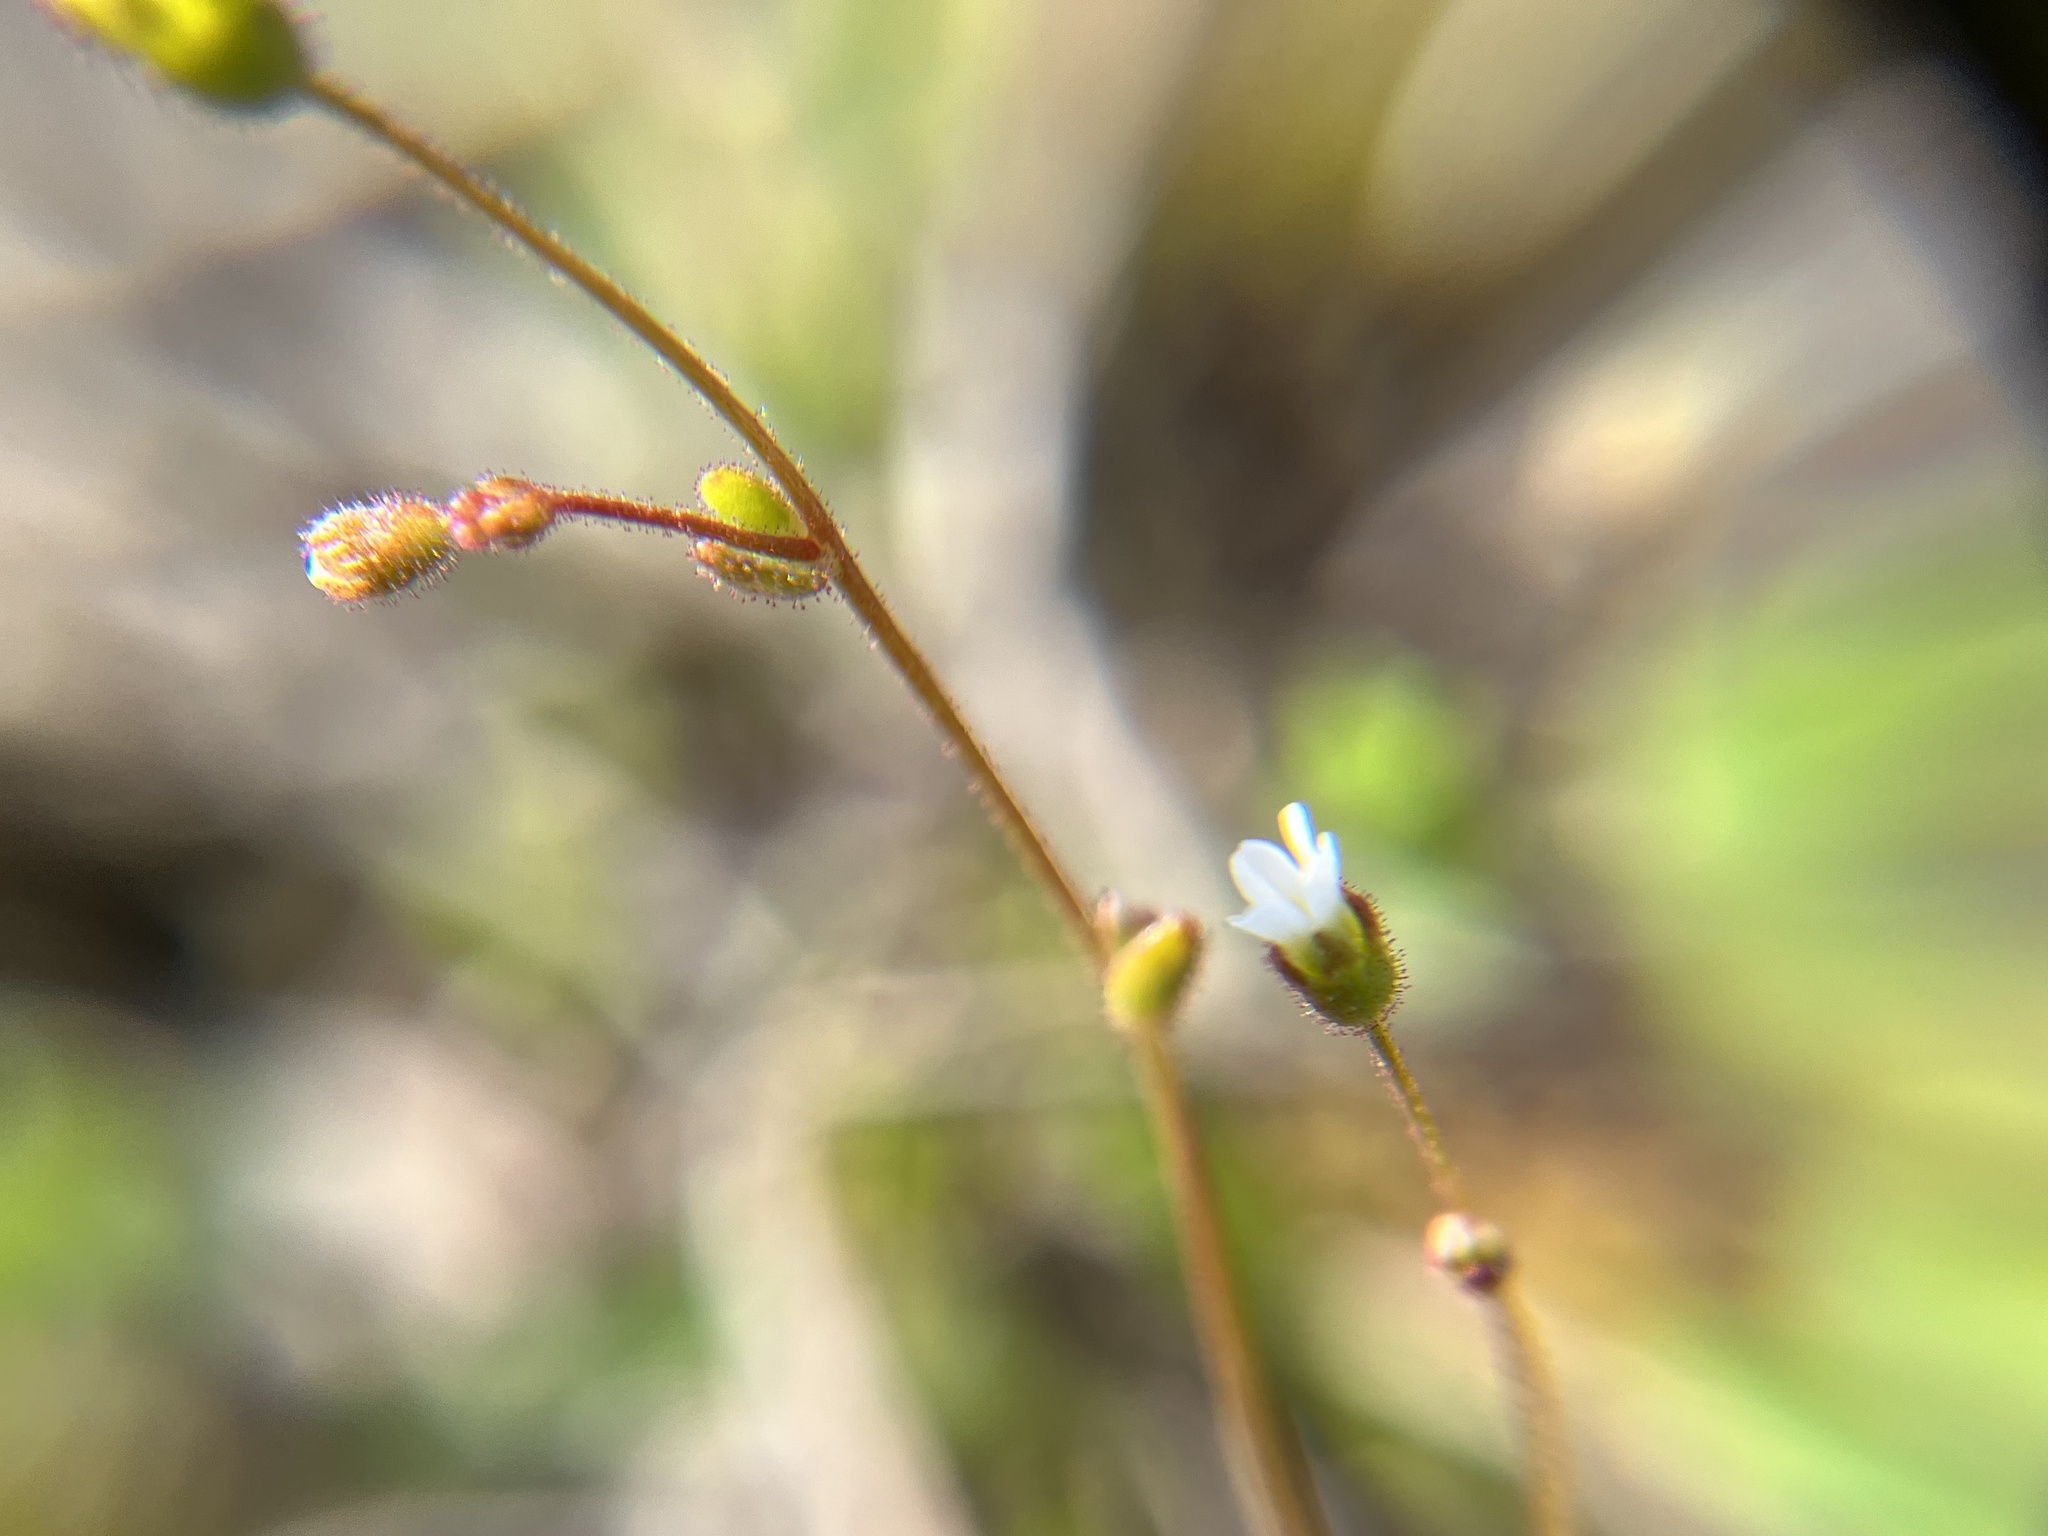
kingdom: Plantae
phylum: Tracheophyta
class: Magnoliopsida
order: Saxifragales
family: Saxifragaceae
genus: Saxifraga
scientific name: Saxifraga tridactylites
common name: Rue-leaved saxifrage
